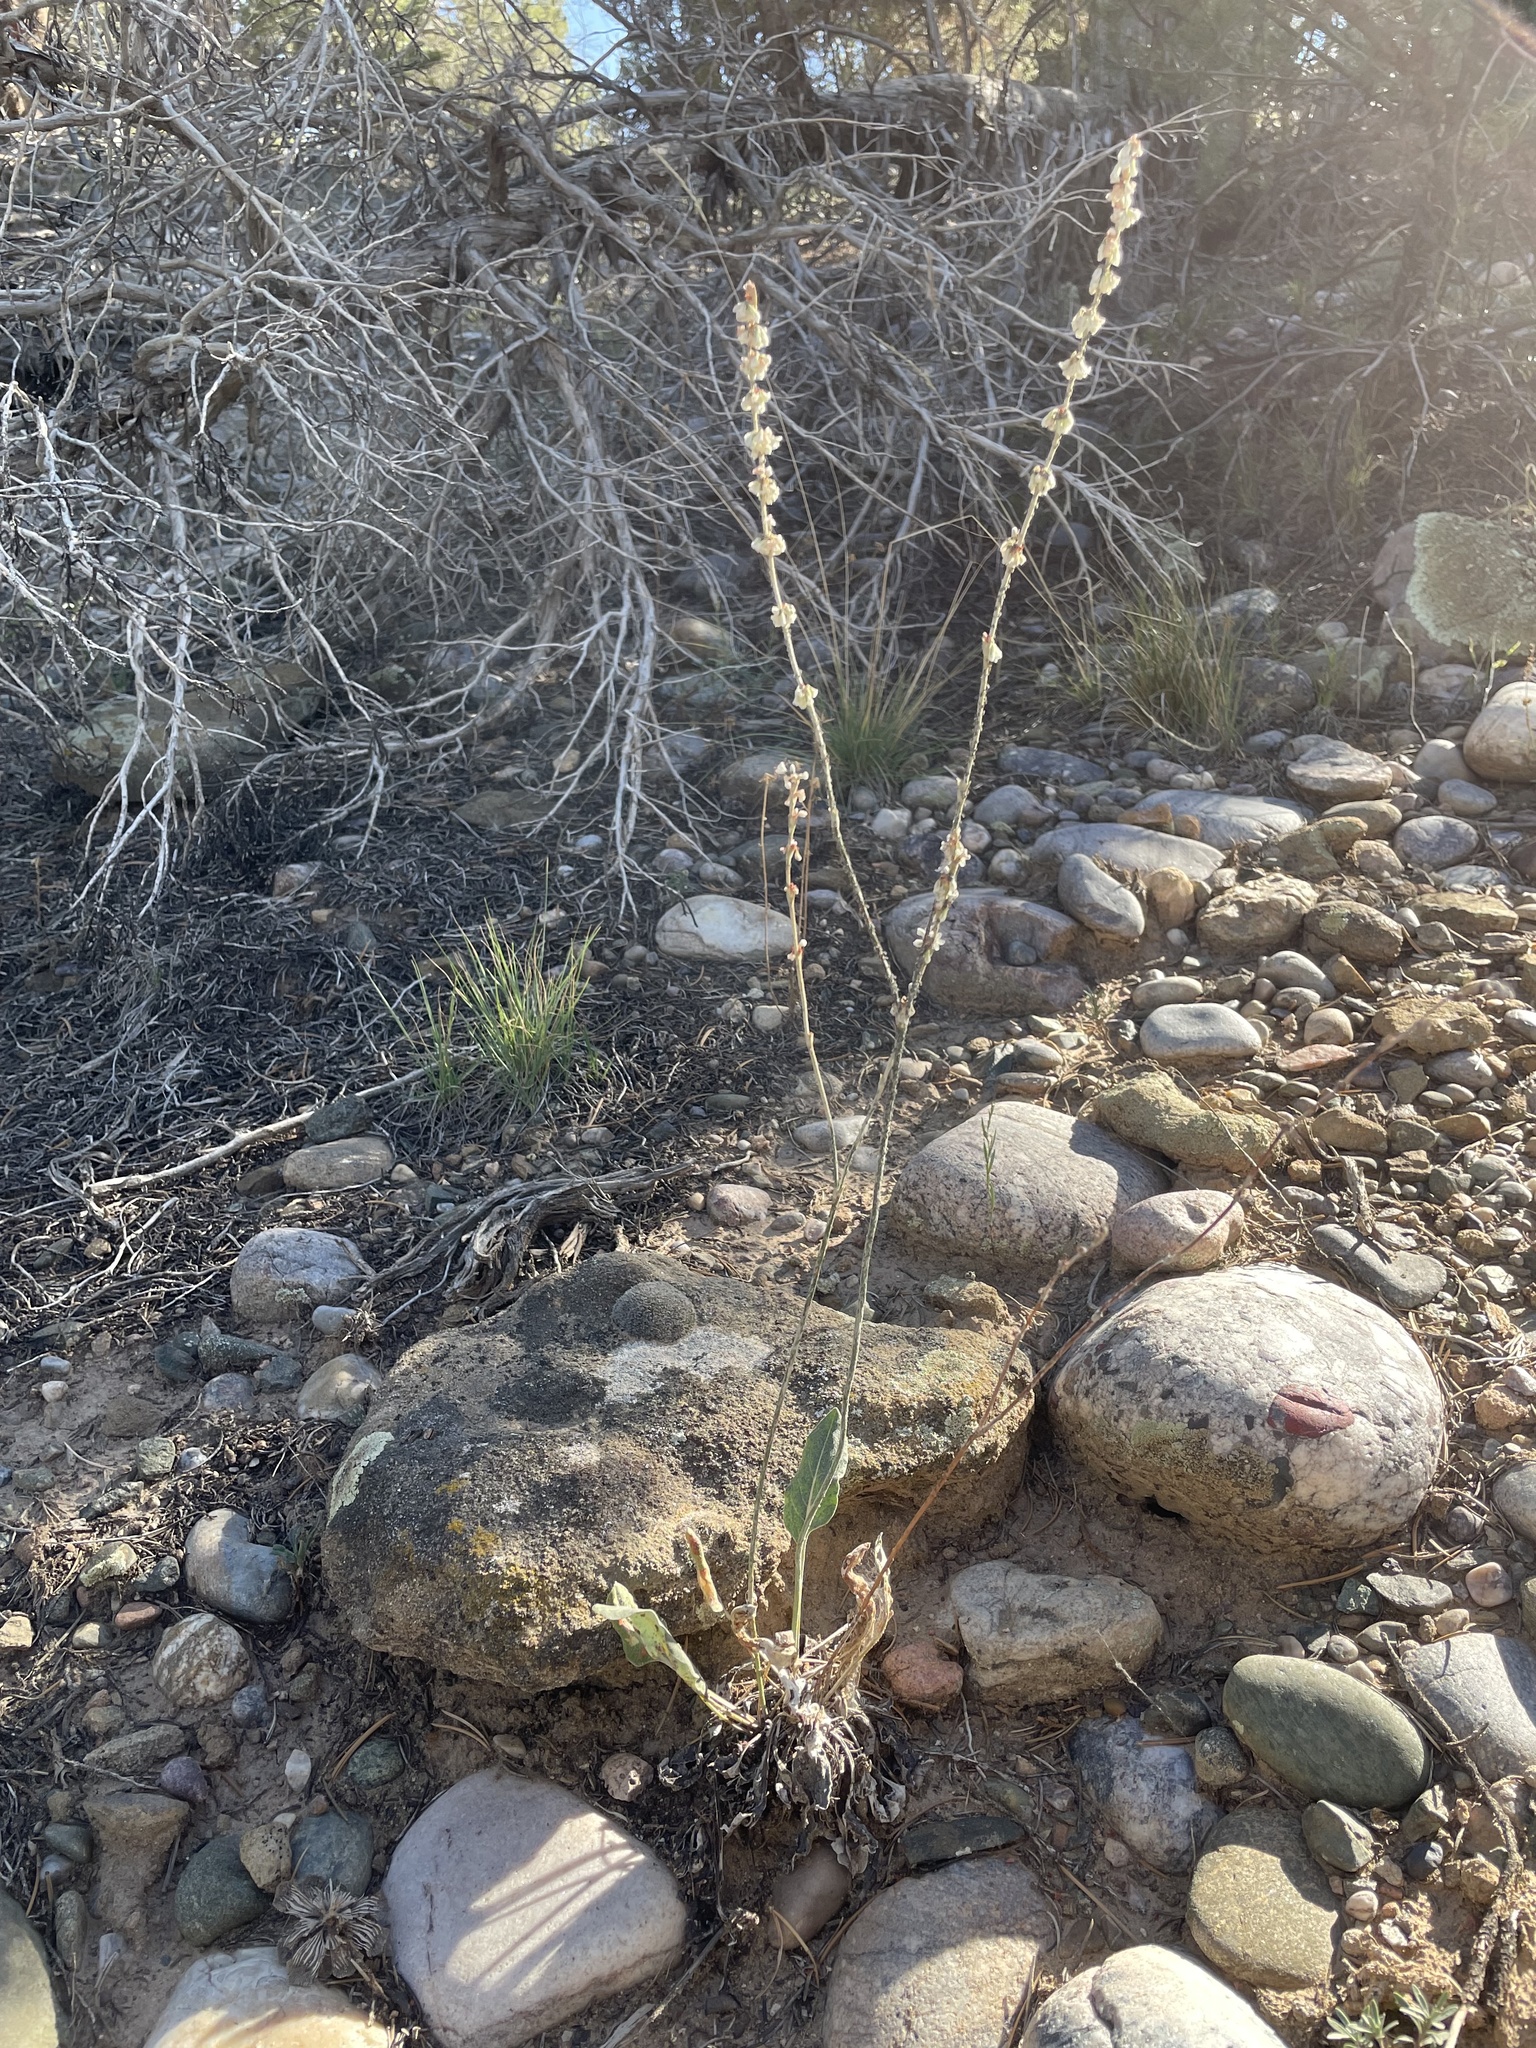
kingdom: Plantae
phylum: Tracheophyta
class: Magnoliopsida
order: Caryophyllales
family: Polygonaceae
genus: Eriogonum
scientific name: Eriogonum racemosum
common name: Redroot wild buckwheat
